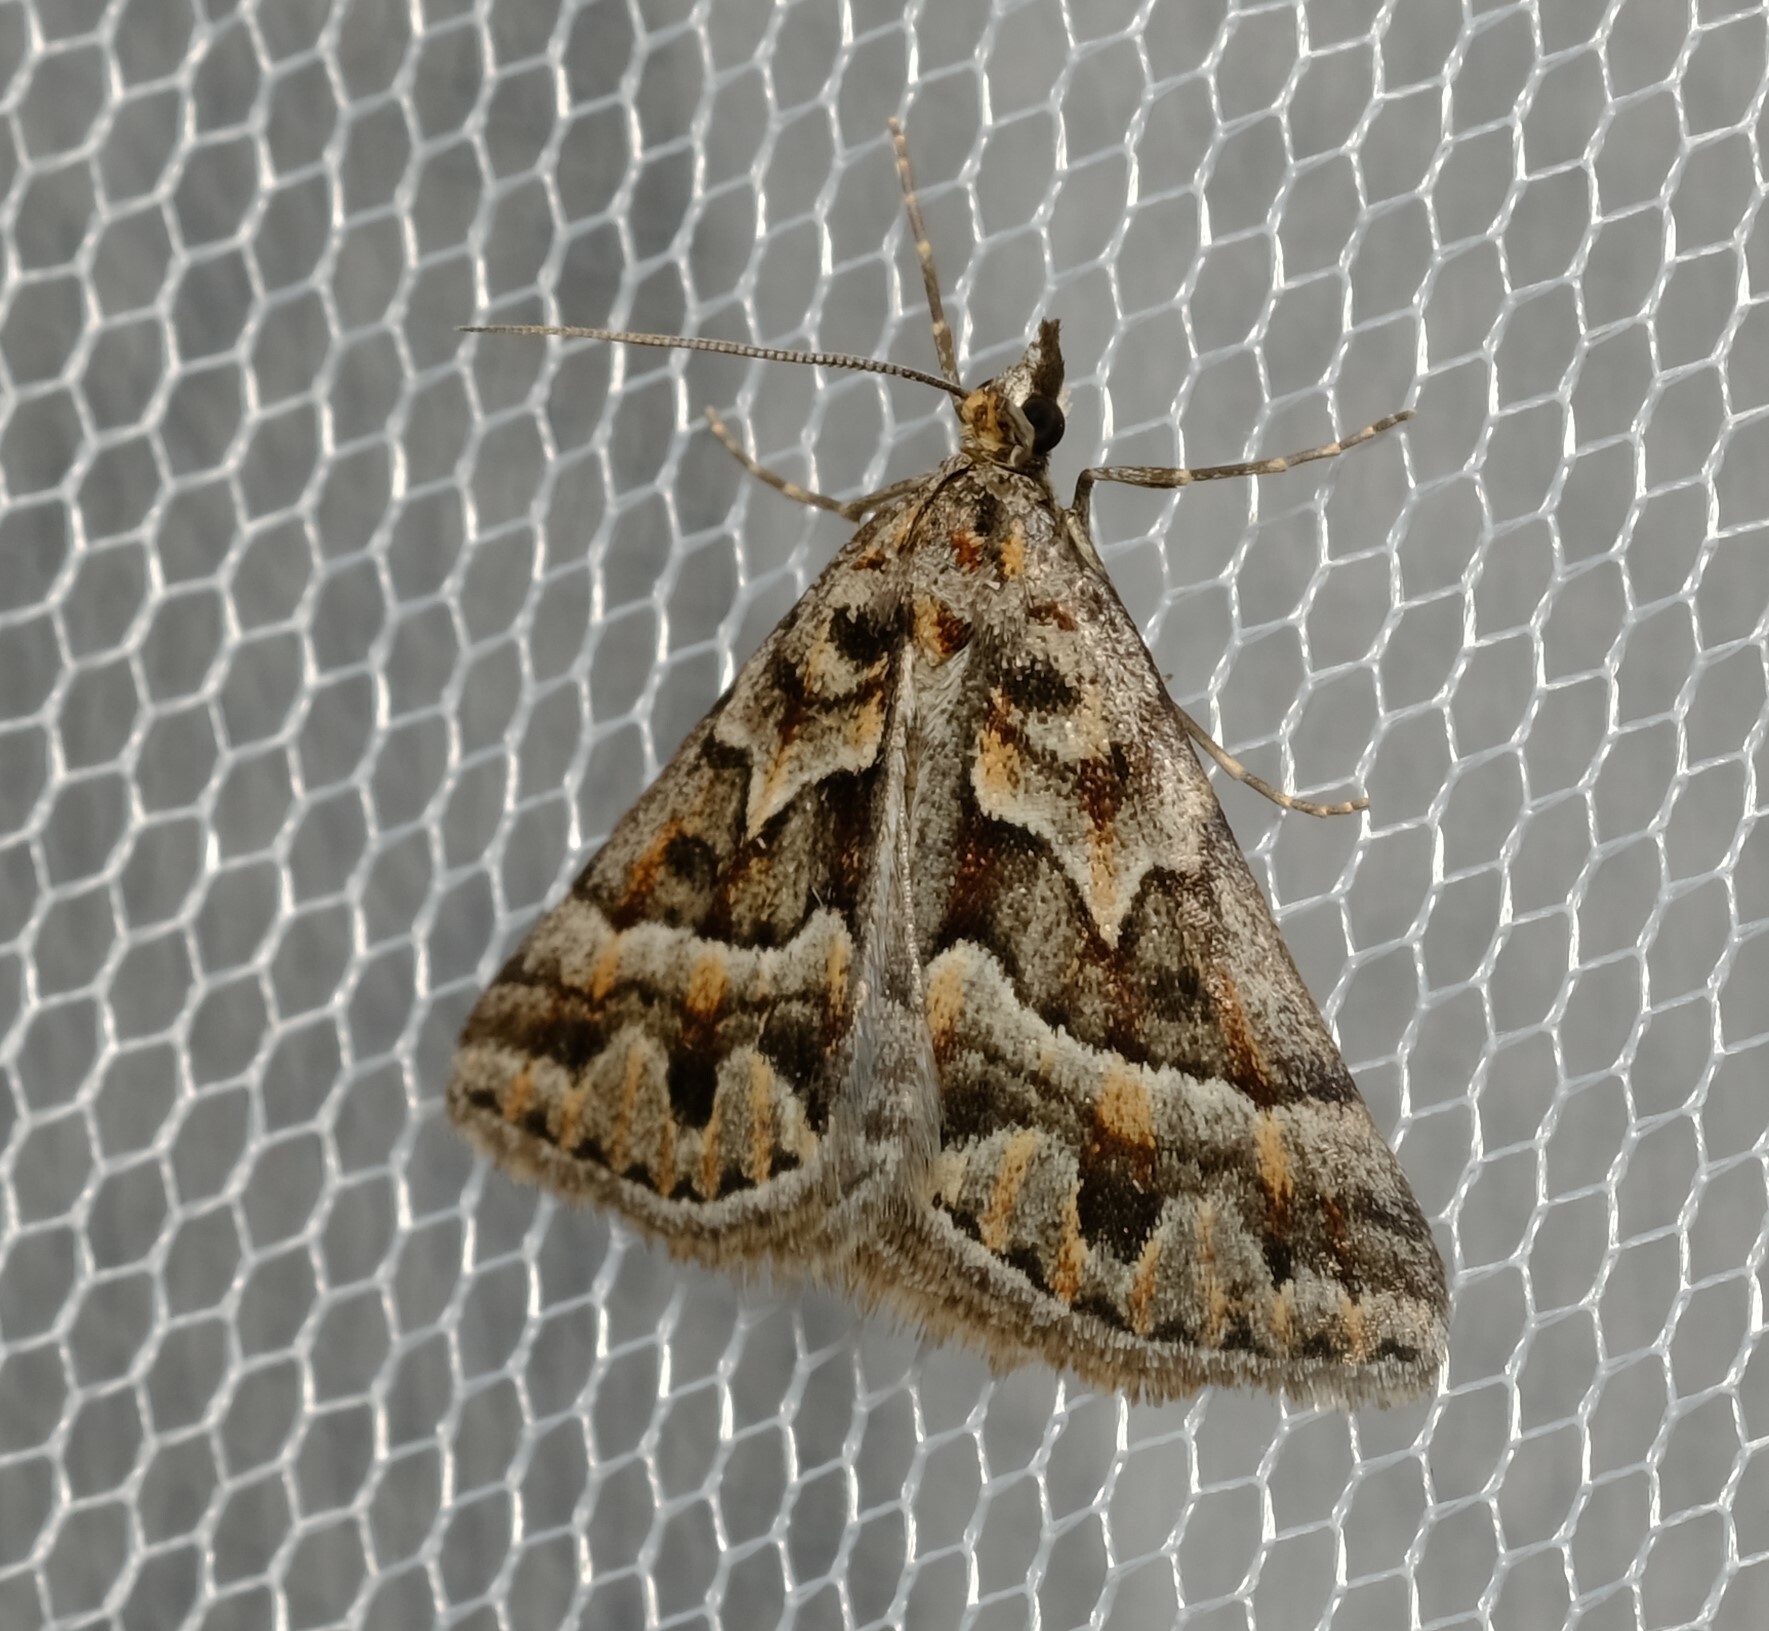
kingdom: Animalia
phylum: Arthropoda
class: Insecta
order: Lepidoptera
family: Geometridae
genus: Dichromodes
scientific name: Dichromodes poecilotis
